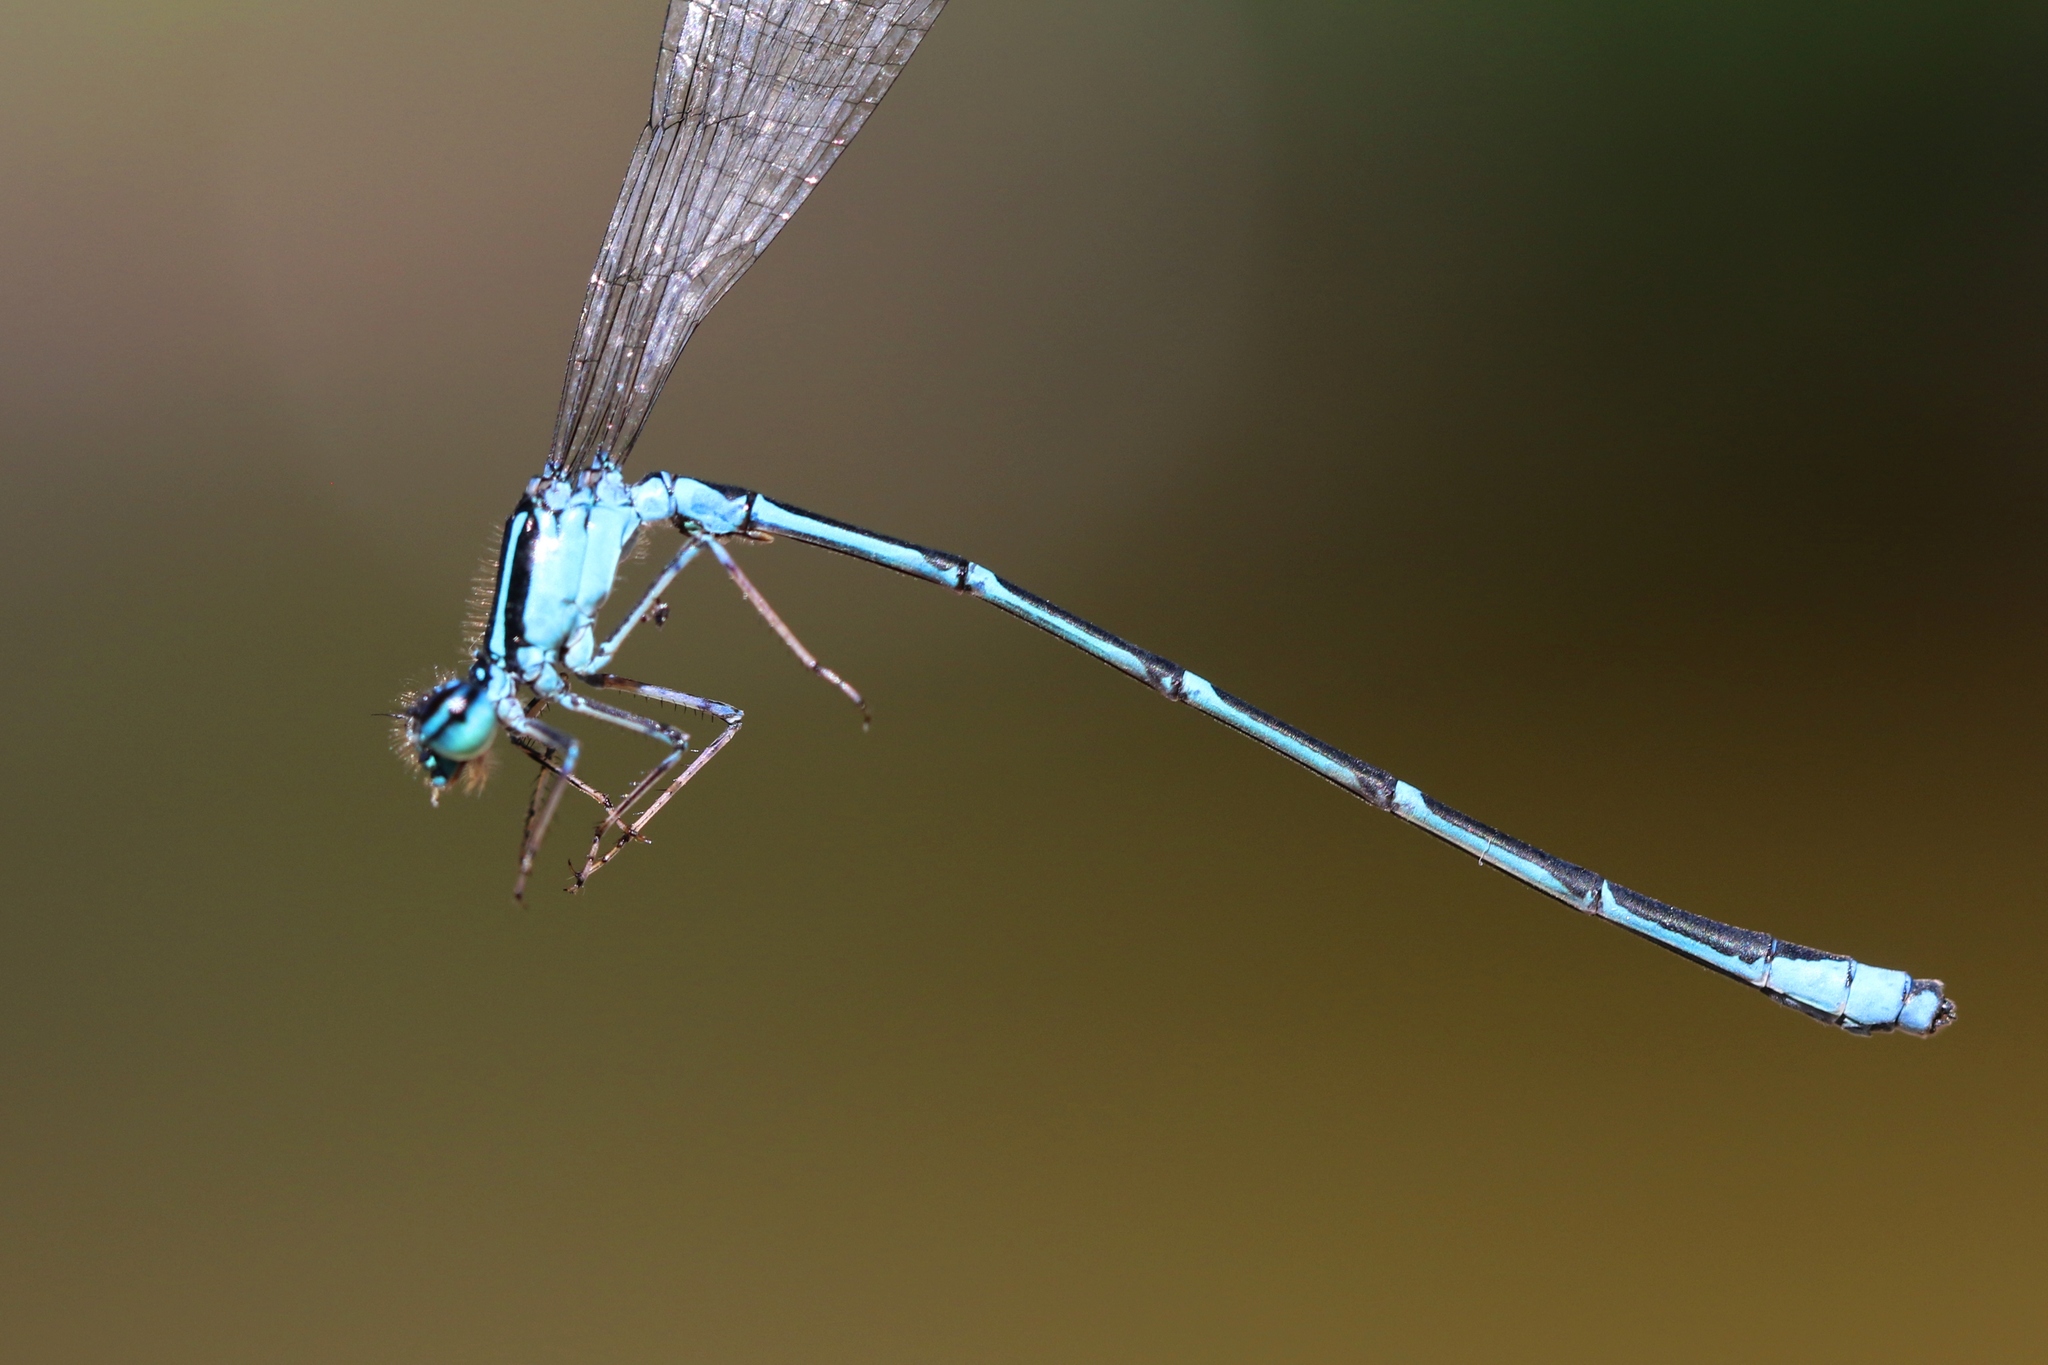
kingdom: Animalia
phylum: Arthropoda
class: Insecta
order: Odonata
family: Coenagrionidae
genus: Enallagma
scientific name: Enallagma exsulans
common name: Stream bluet
